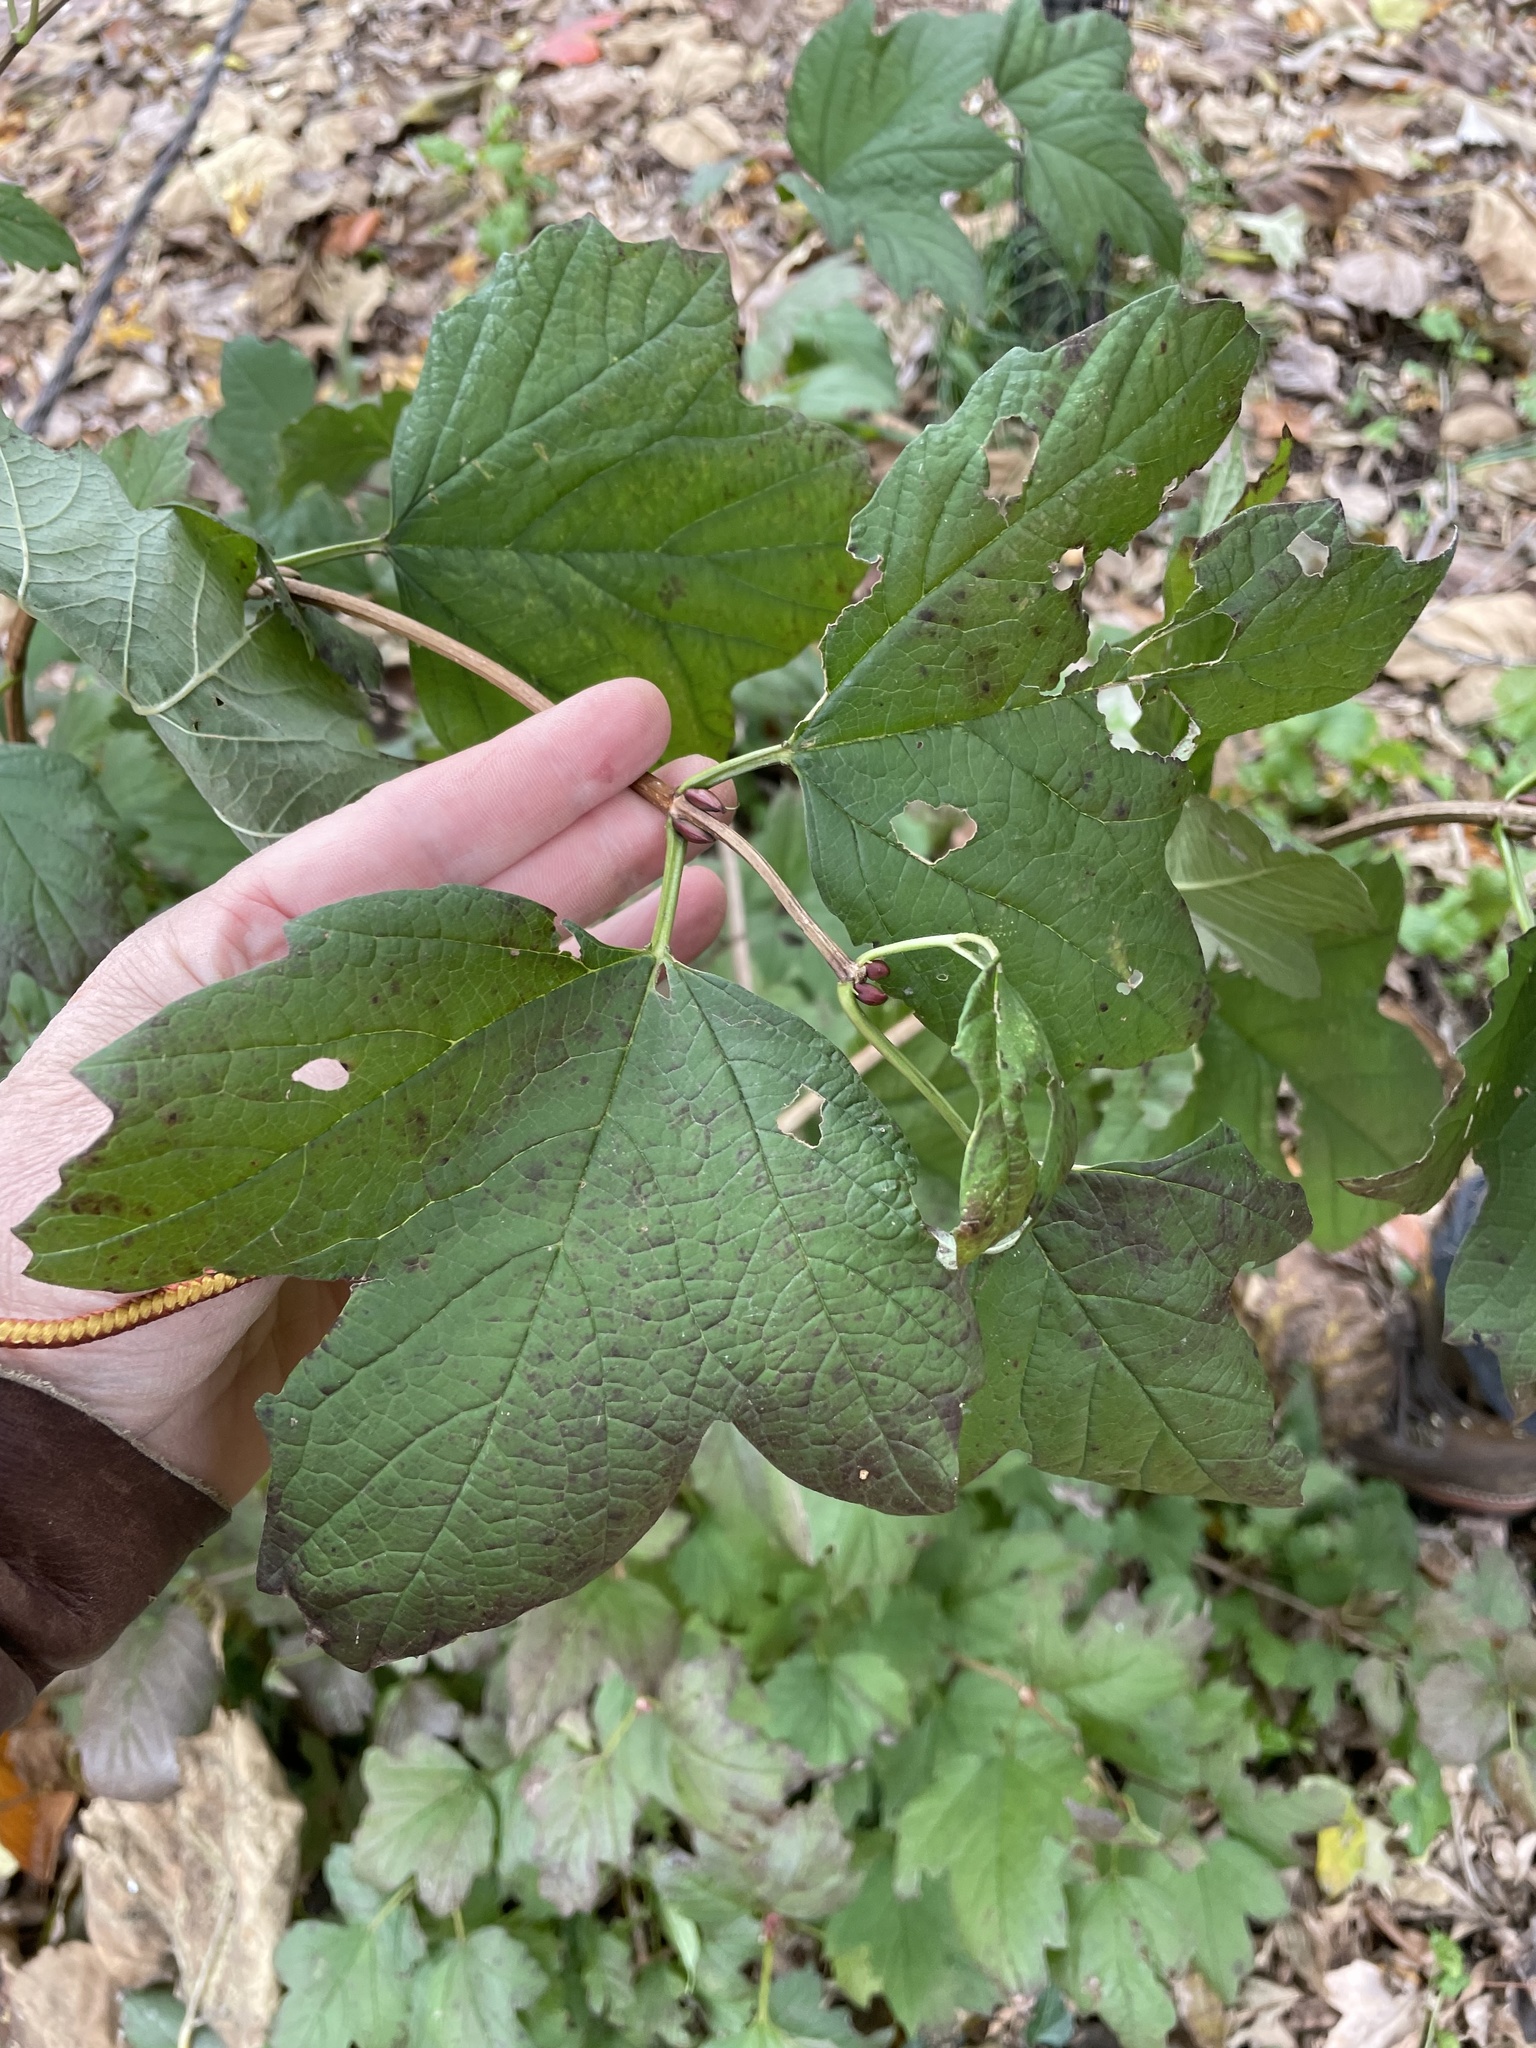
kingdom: Plantae
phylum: Tracheophyta
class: Magnoliopsida
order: Dipsacales
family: Viburnaceae
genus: Viburnum
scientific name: Viburnum opulus
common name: Guelder-rose
